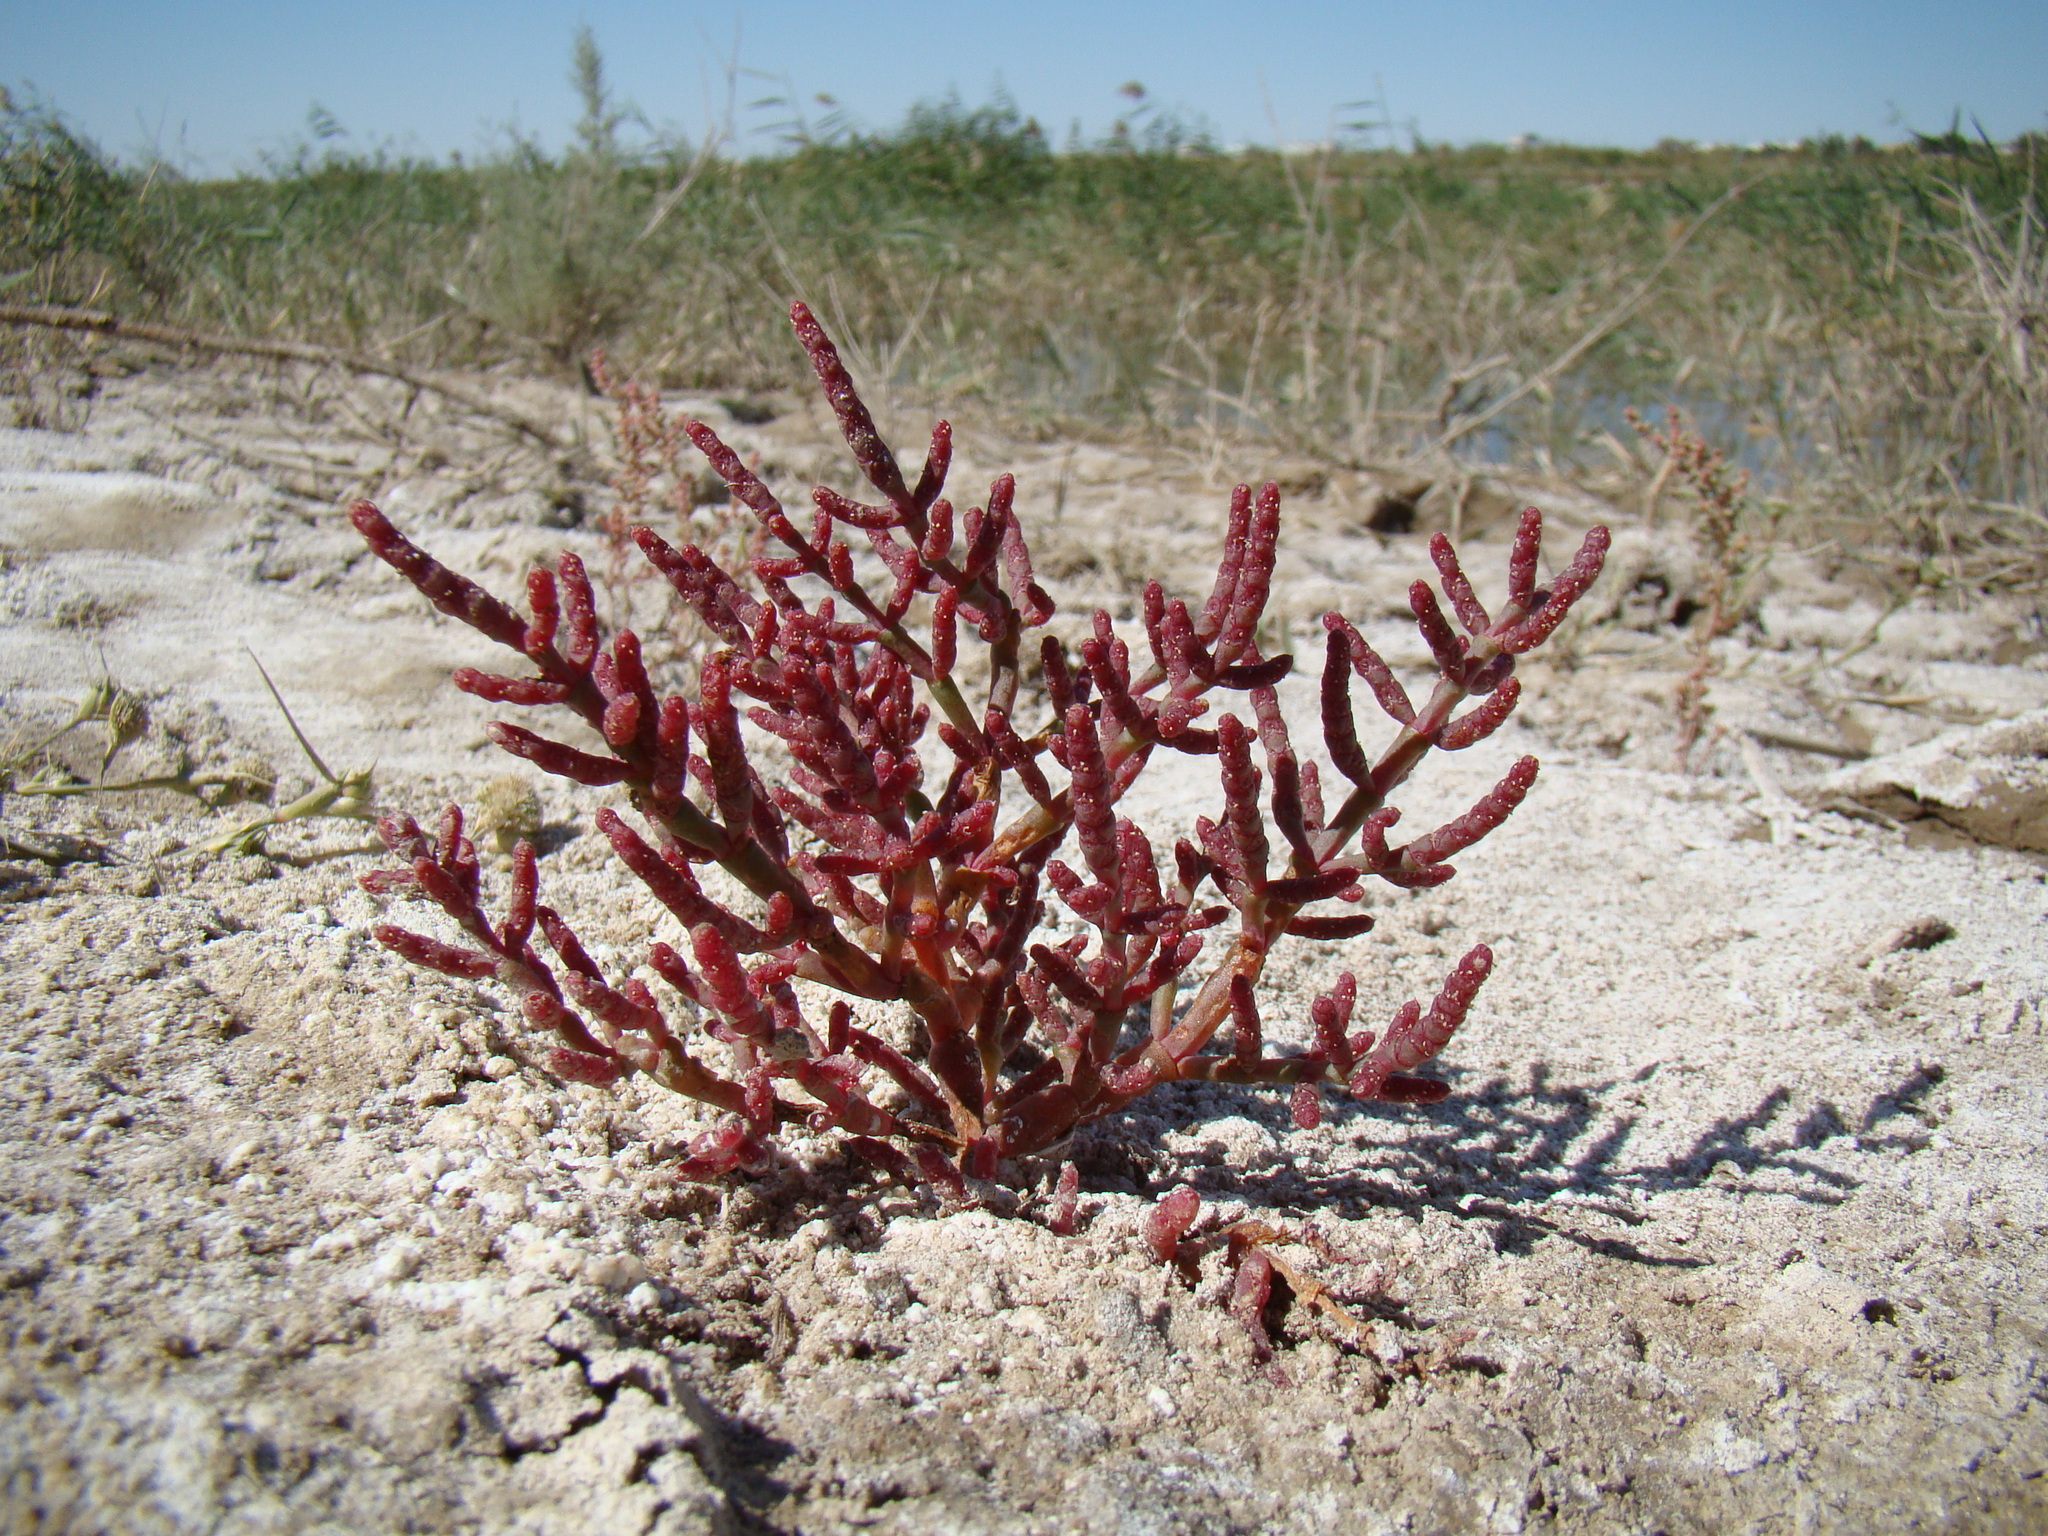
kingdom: Plantae
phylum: Tracheophyta
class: Magnoliopsida
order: Caryophyllales
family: Amaranthaceae
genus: Salicornia
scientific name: Salicornia perennans
